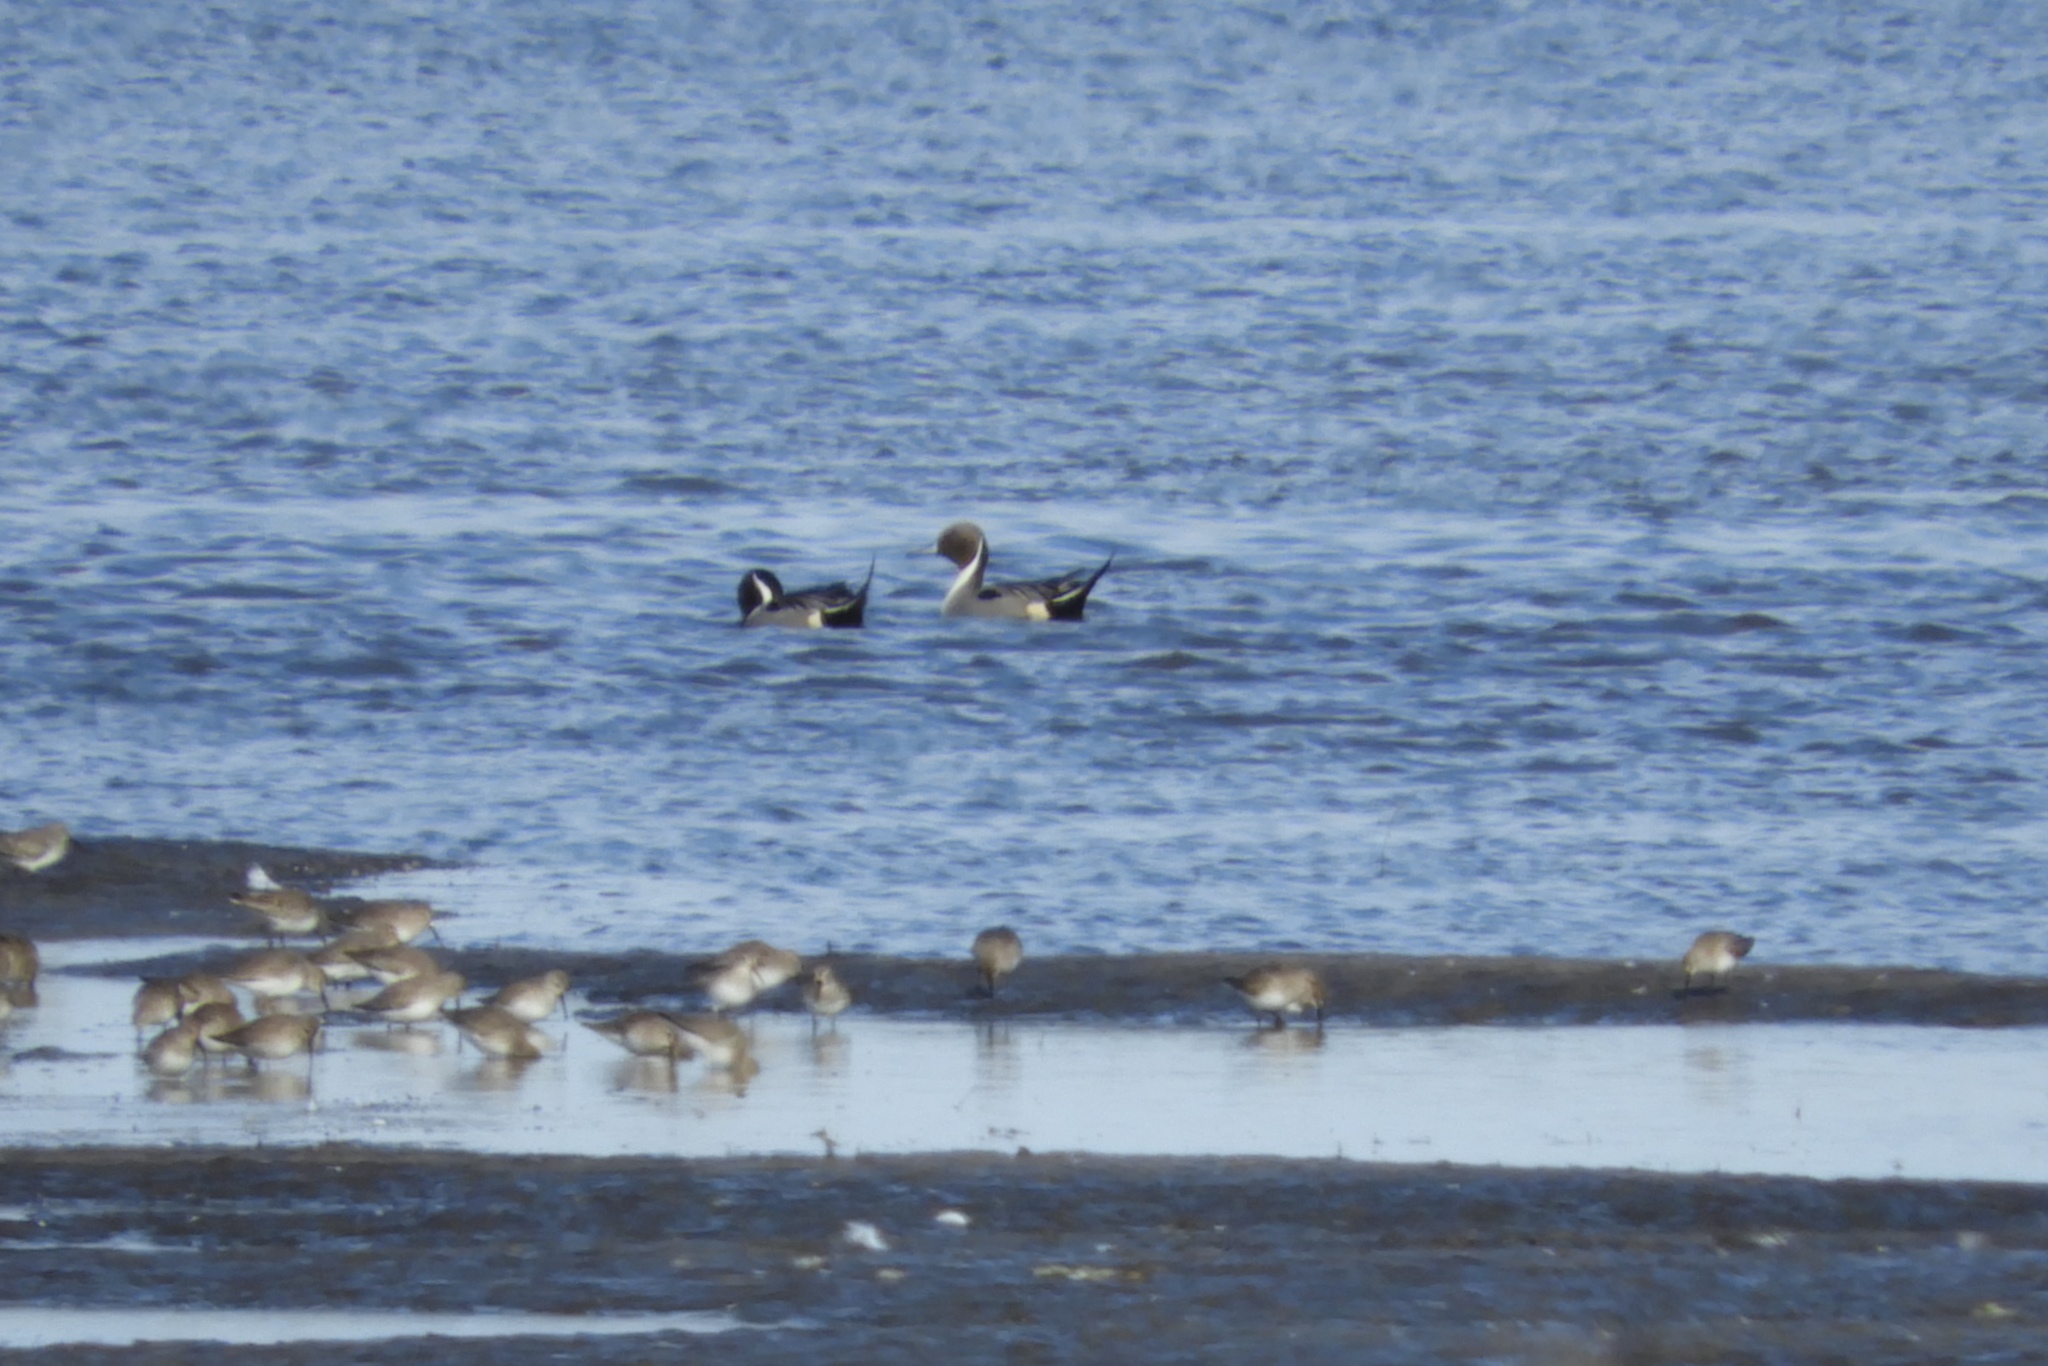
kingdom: Animalia
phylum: Chordata
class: Aves
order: Anseriformes
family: Anatidae
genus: Anas
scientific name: Anas acuta
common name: Northern pintail
